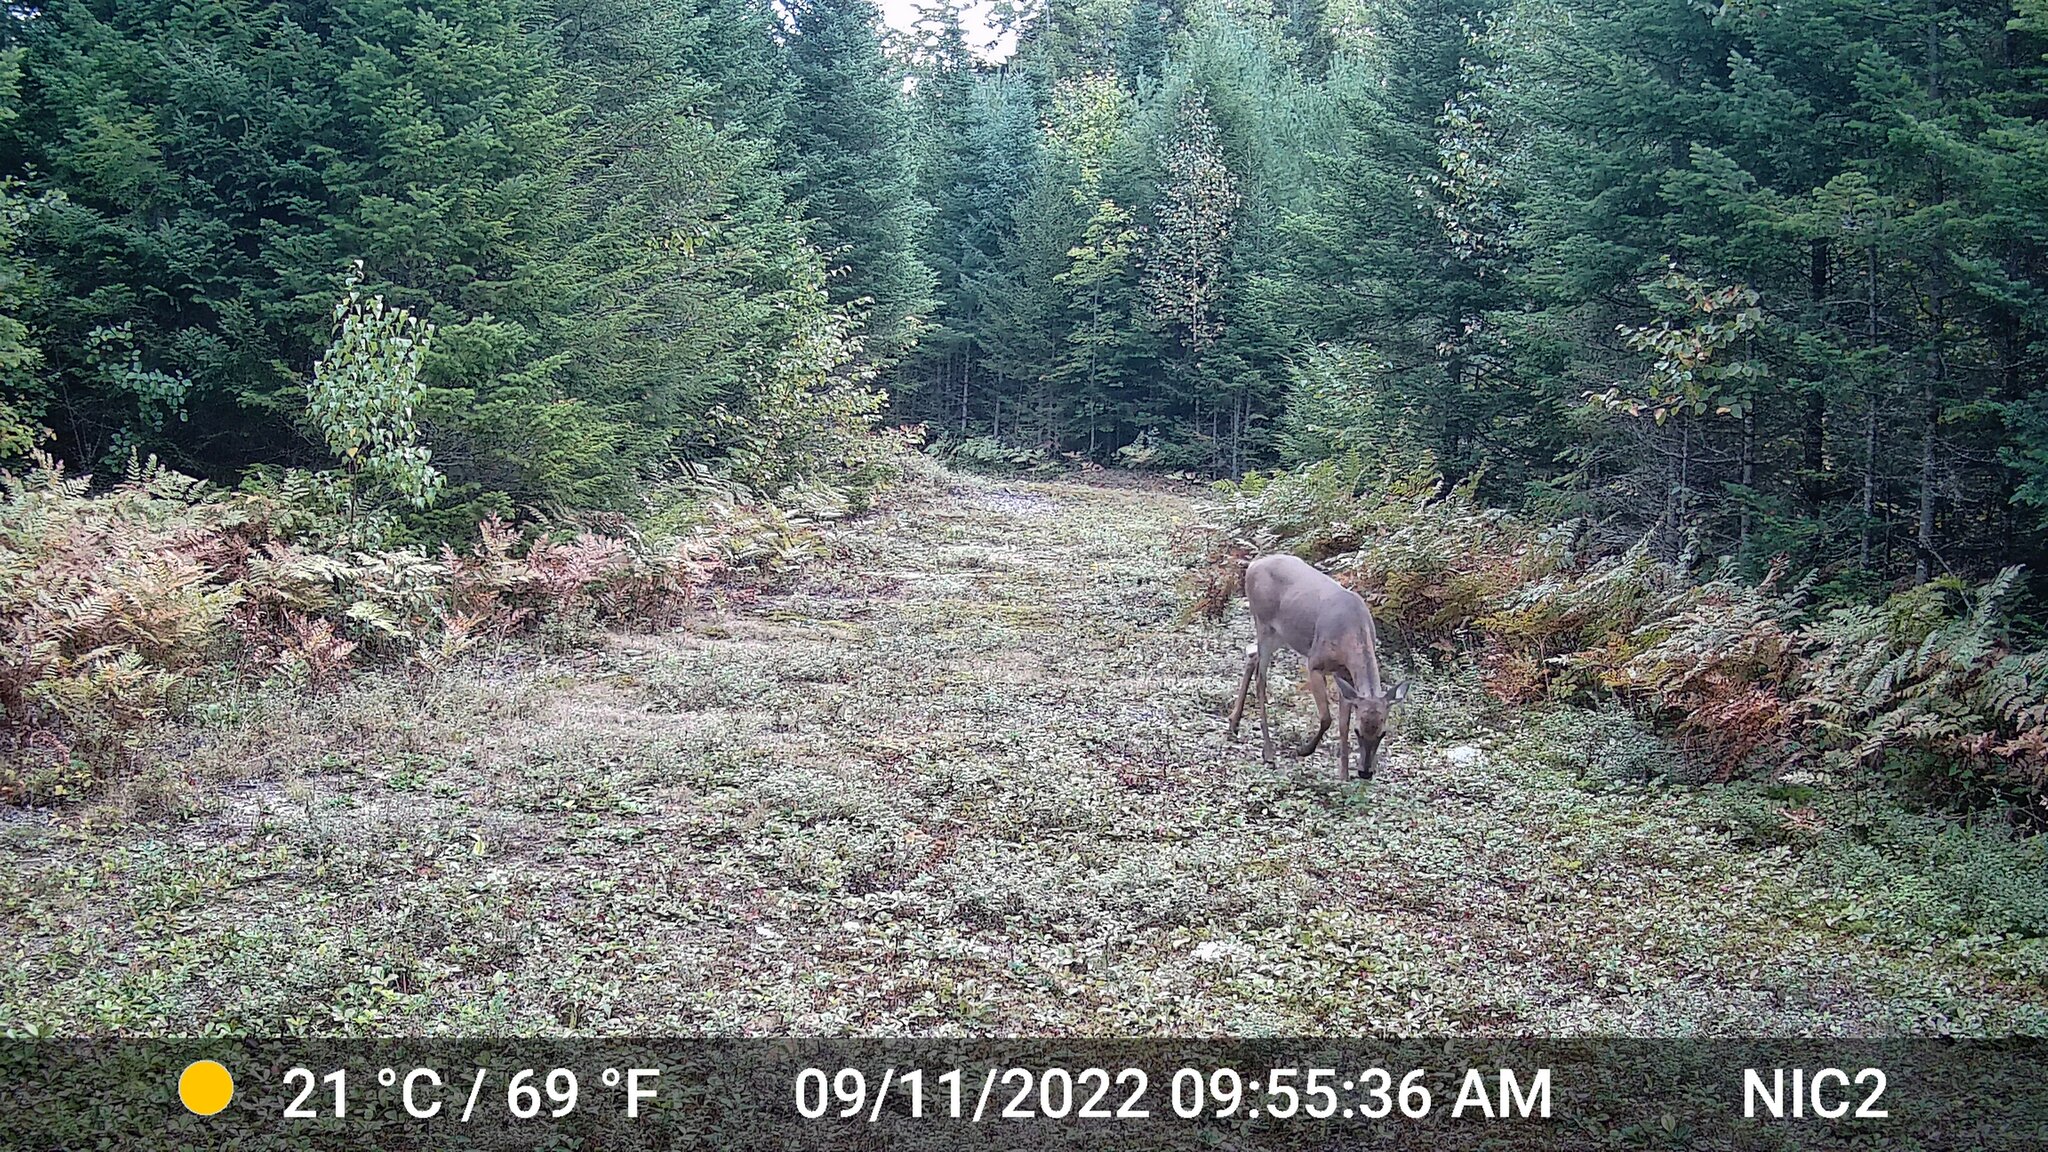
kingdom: Animalia
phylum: Chordata
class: Mammalia
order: Artiodactyla
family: Cervidae
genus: Odocoileus
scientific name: Odocoileus virginianus
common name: White-tailed deer
